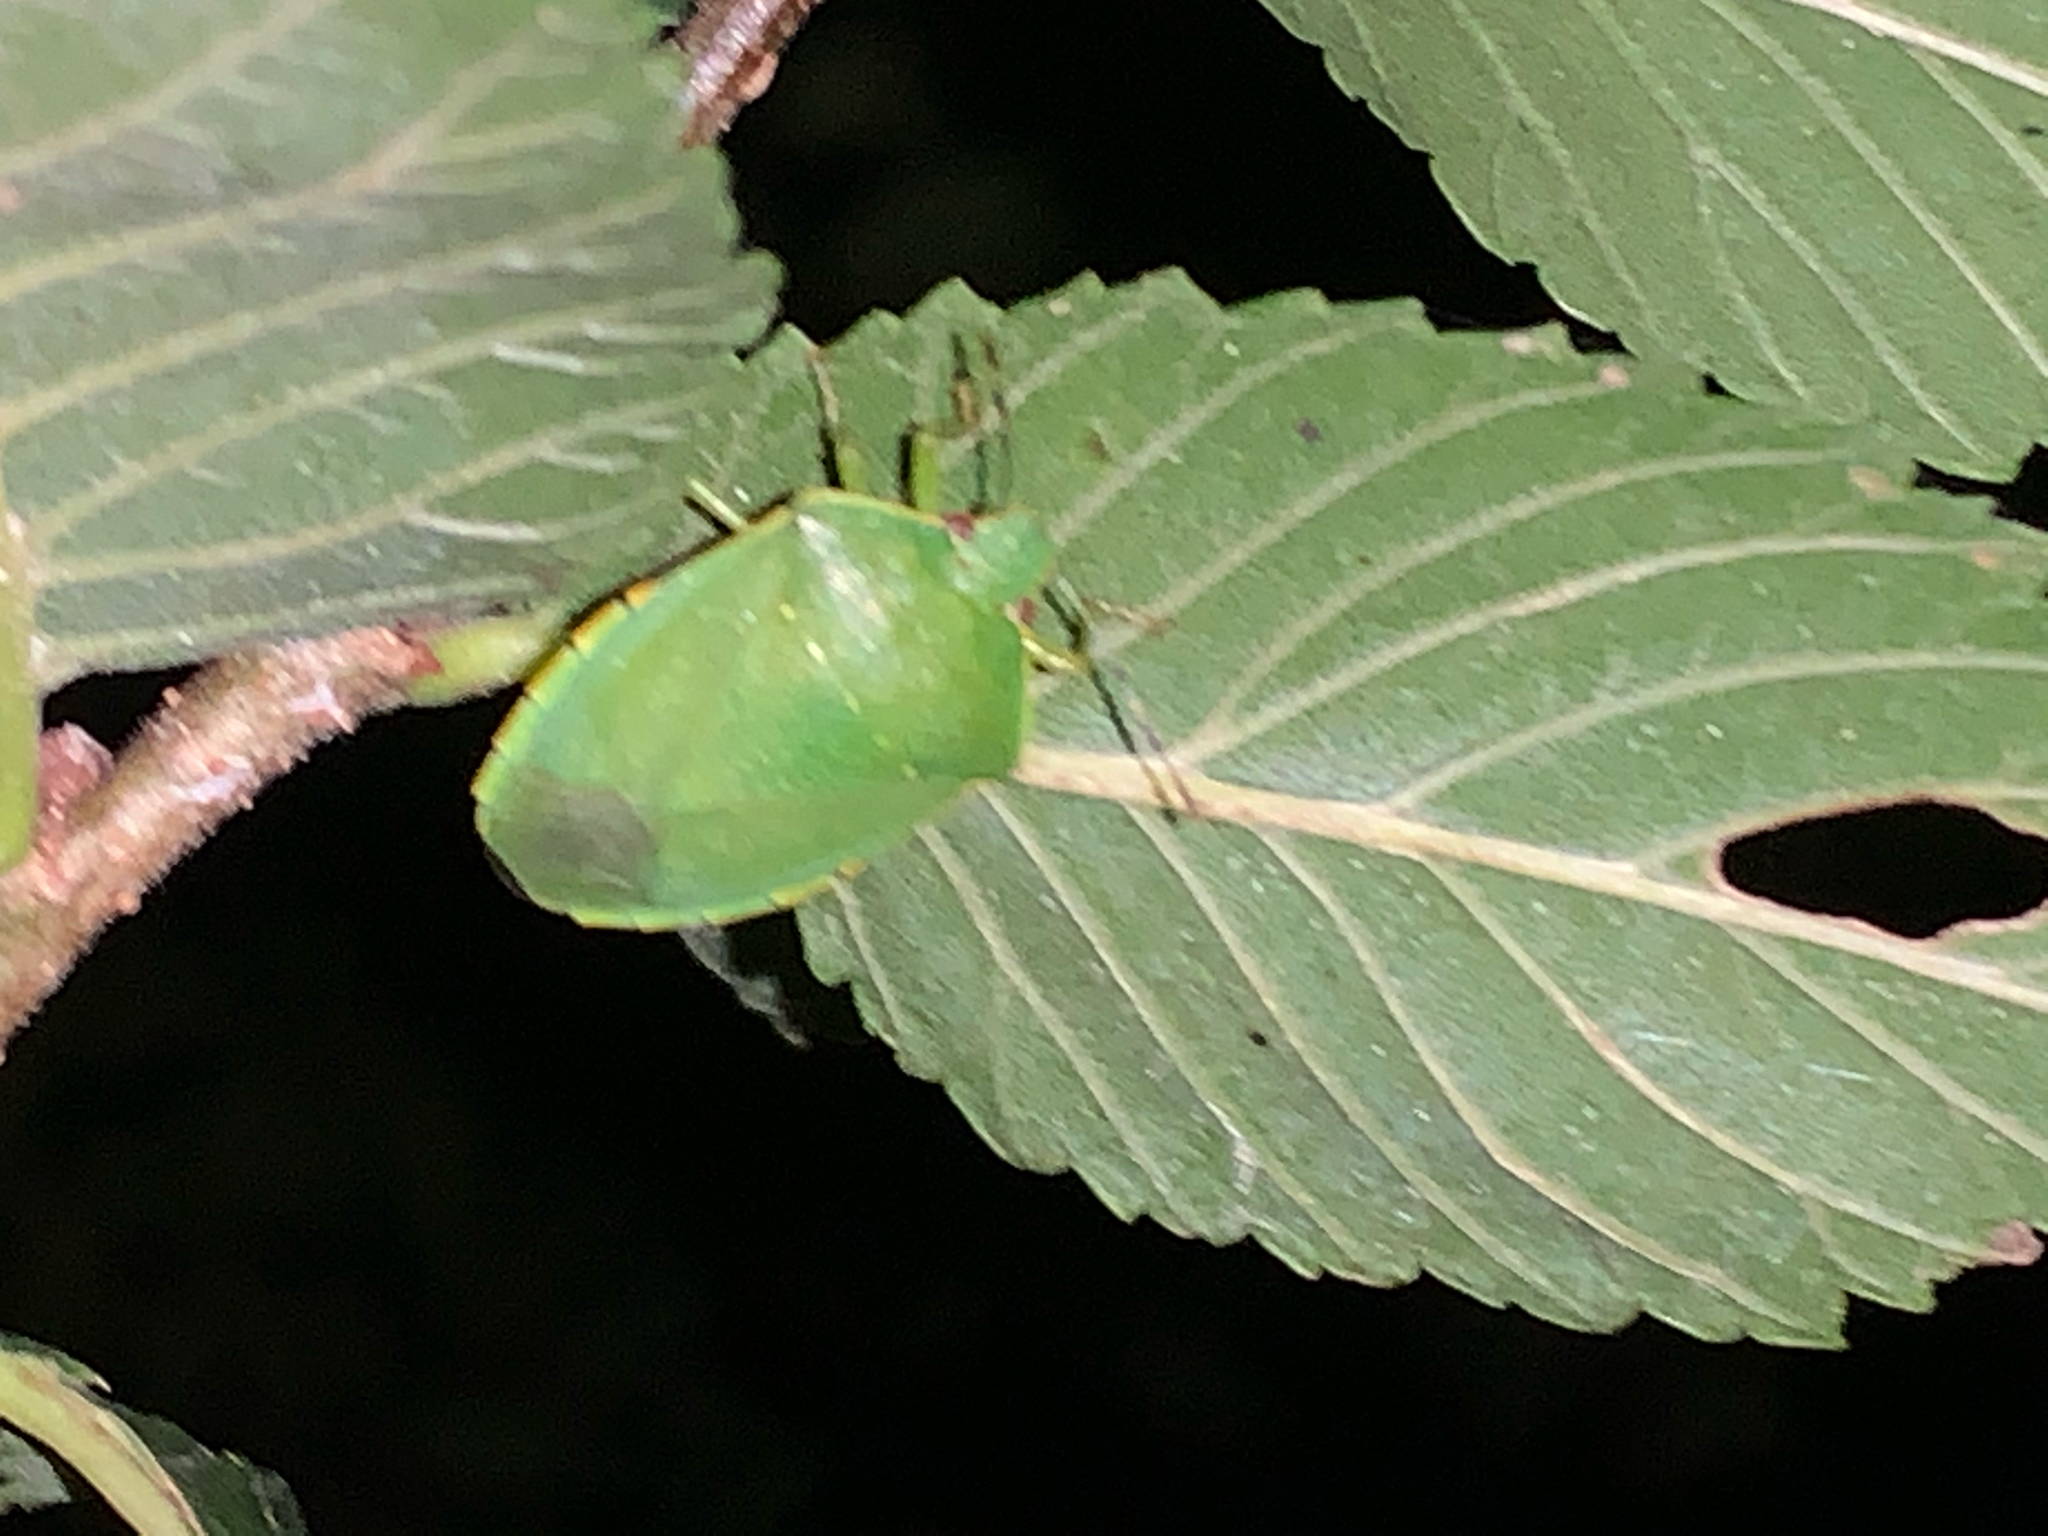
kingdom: Animalia
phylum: Arthropoda
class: Insecta
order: Hemiptera
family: Pentatomidae
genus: Chinavia
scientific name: Chinavia hilaris
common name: Green stink bug
